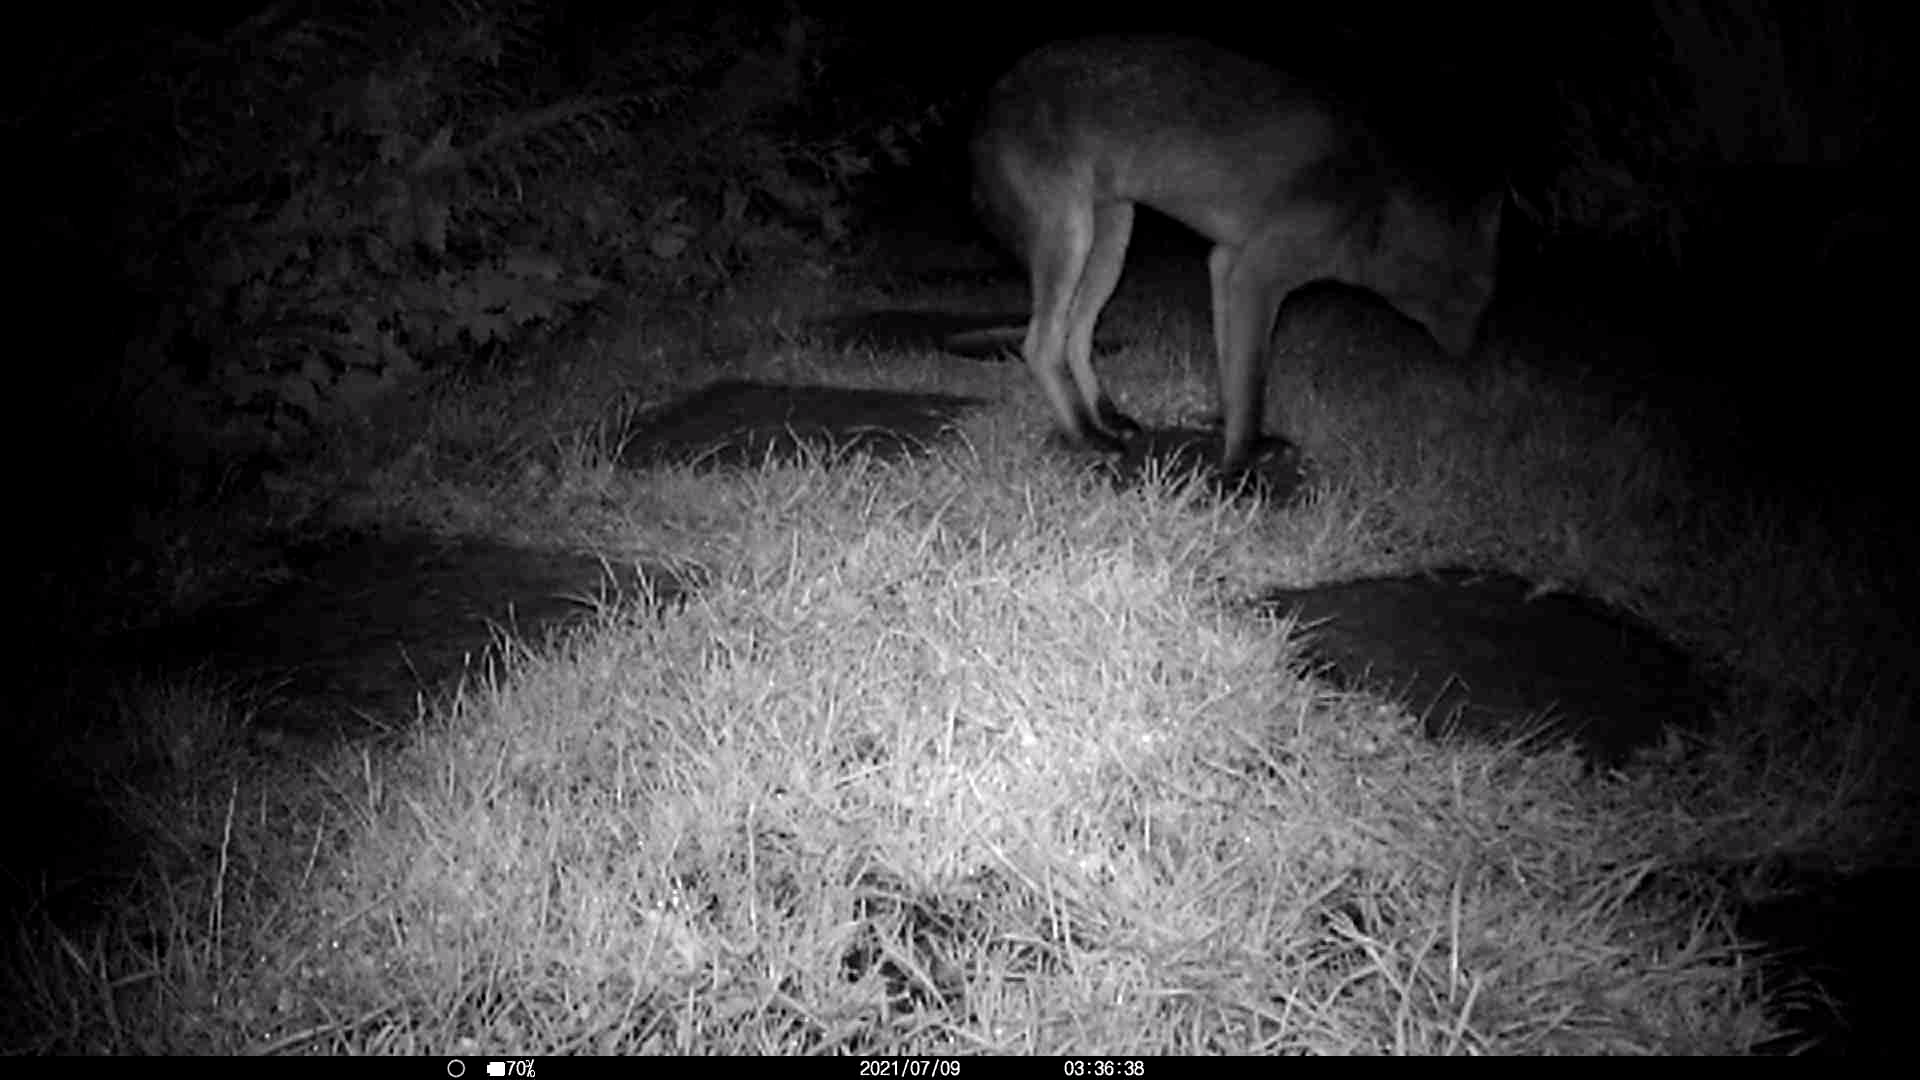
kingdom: Animalia
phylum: Chordata
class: Mammalia
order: Carnivora
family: Canidae
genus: Vulpes
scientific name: Vulpes vulpes
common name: Red fox
